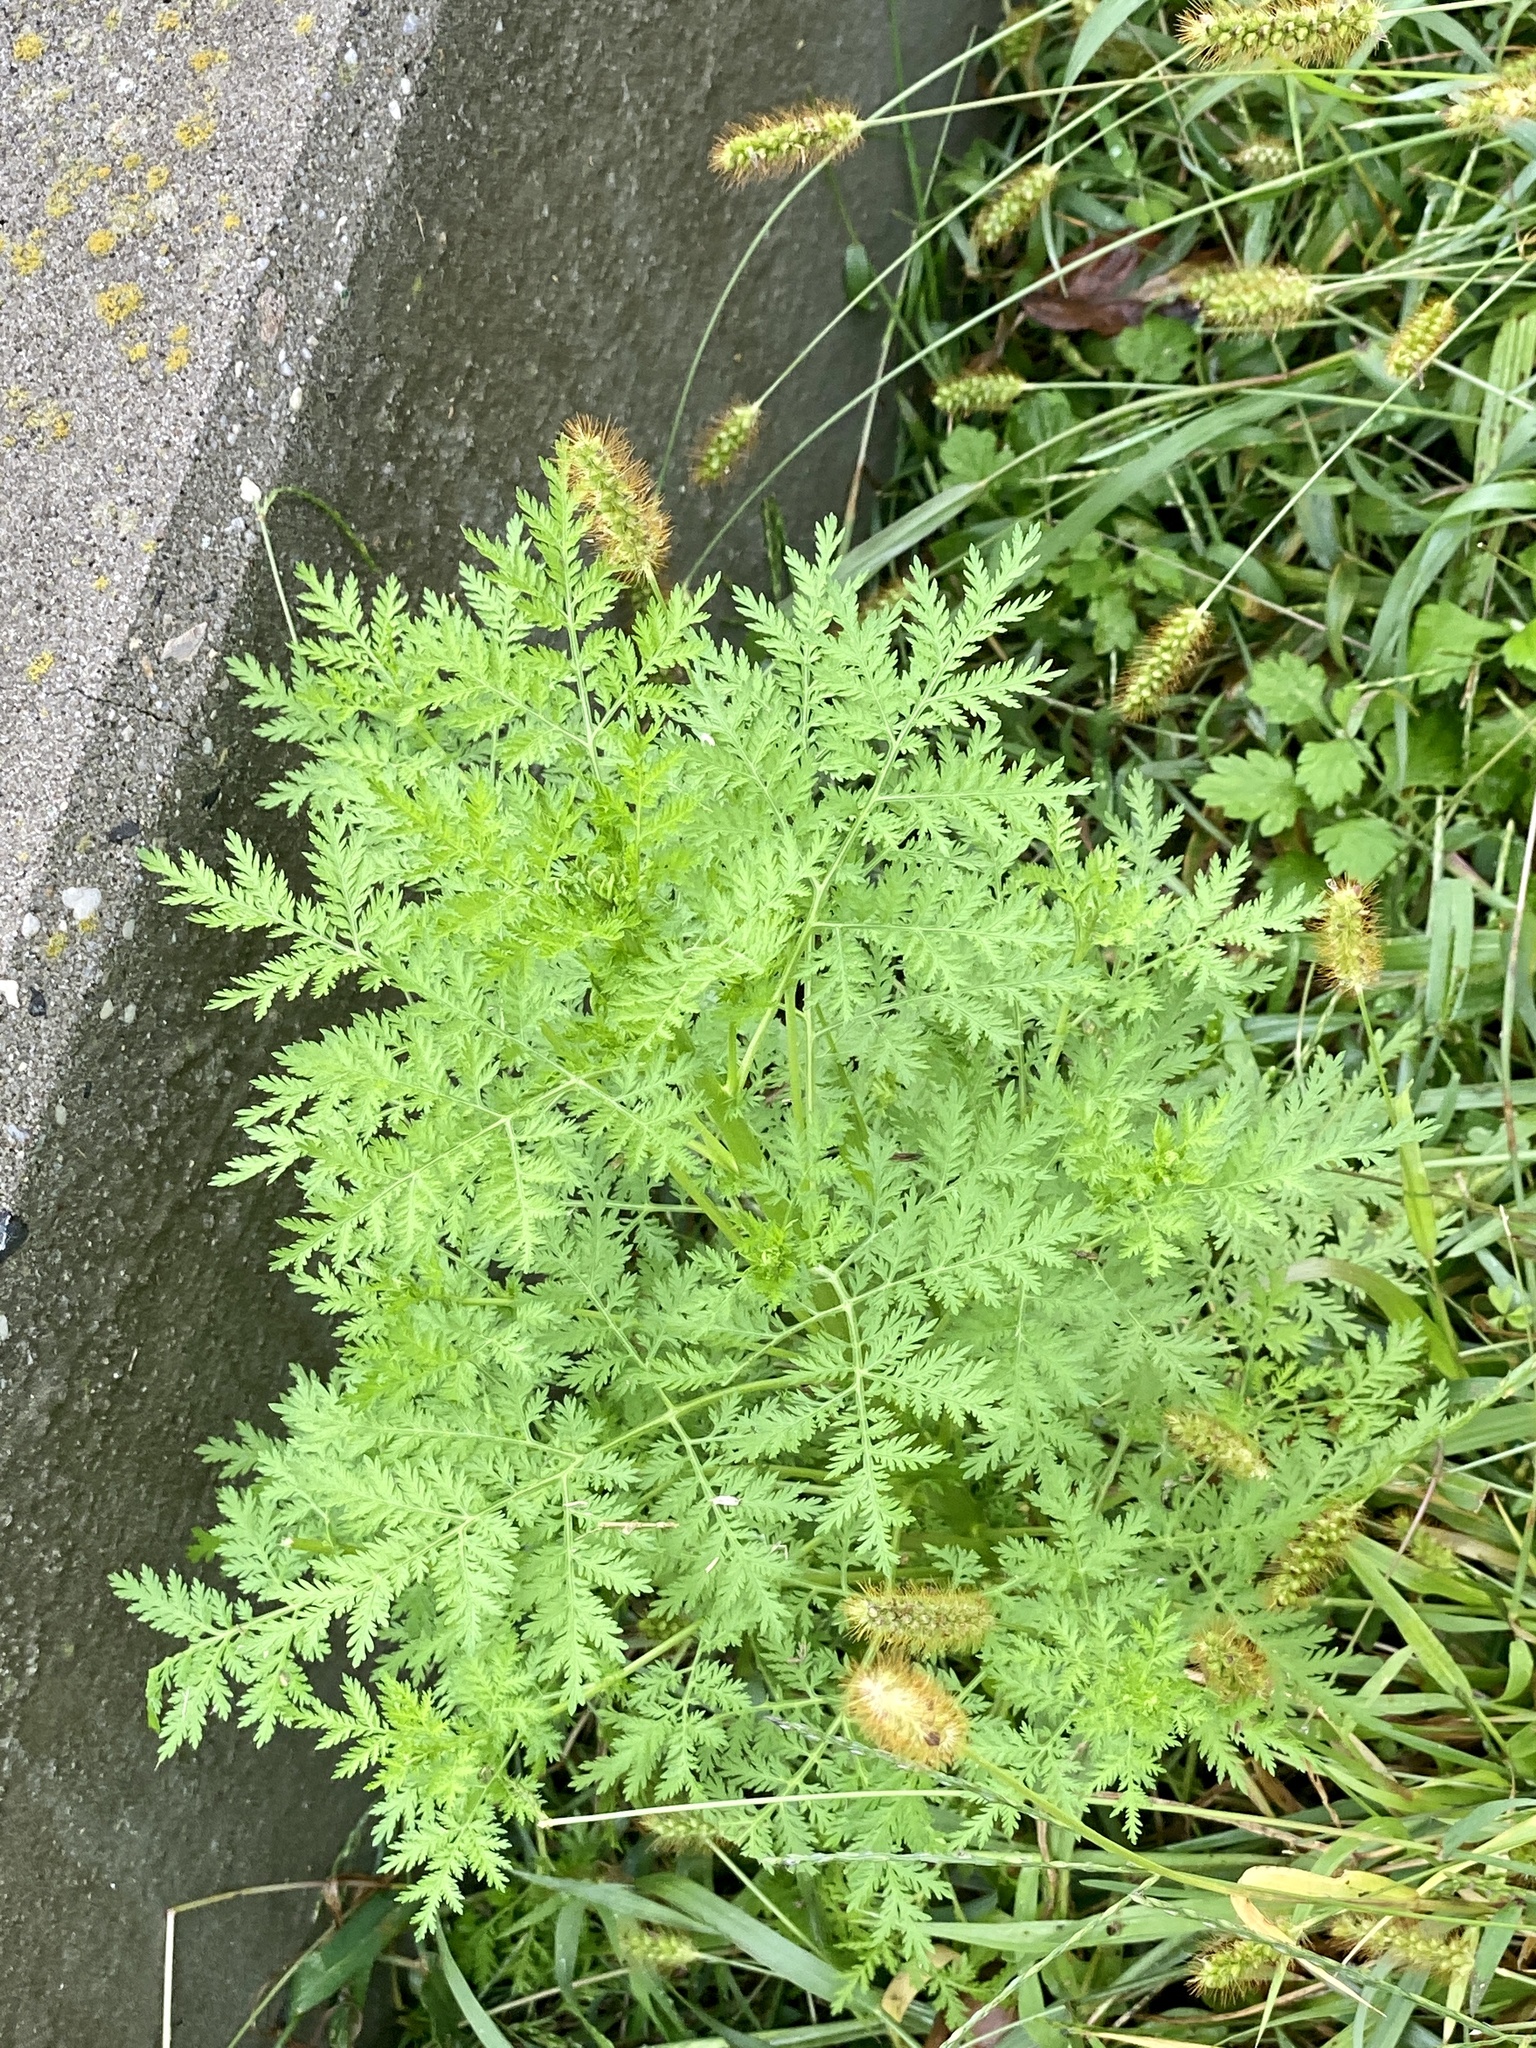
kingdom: Plantae
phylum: Tracheophyta
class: Magnoliopsida
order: Asterales
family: Asteraceae
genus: Artemisia
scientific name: Artemisia annua
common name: Sweet sagewort
